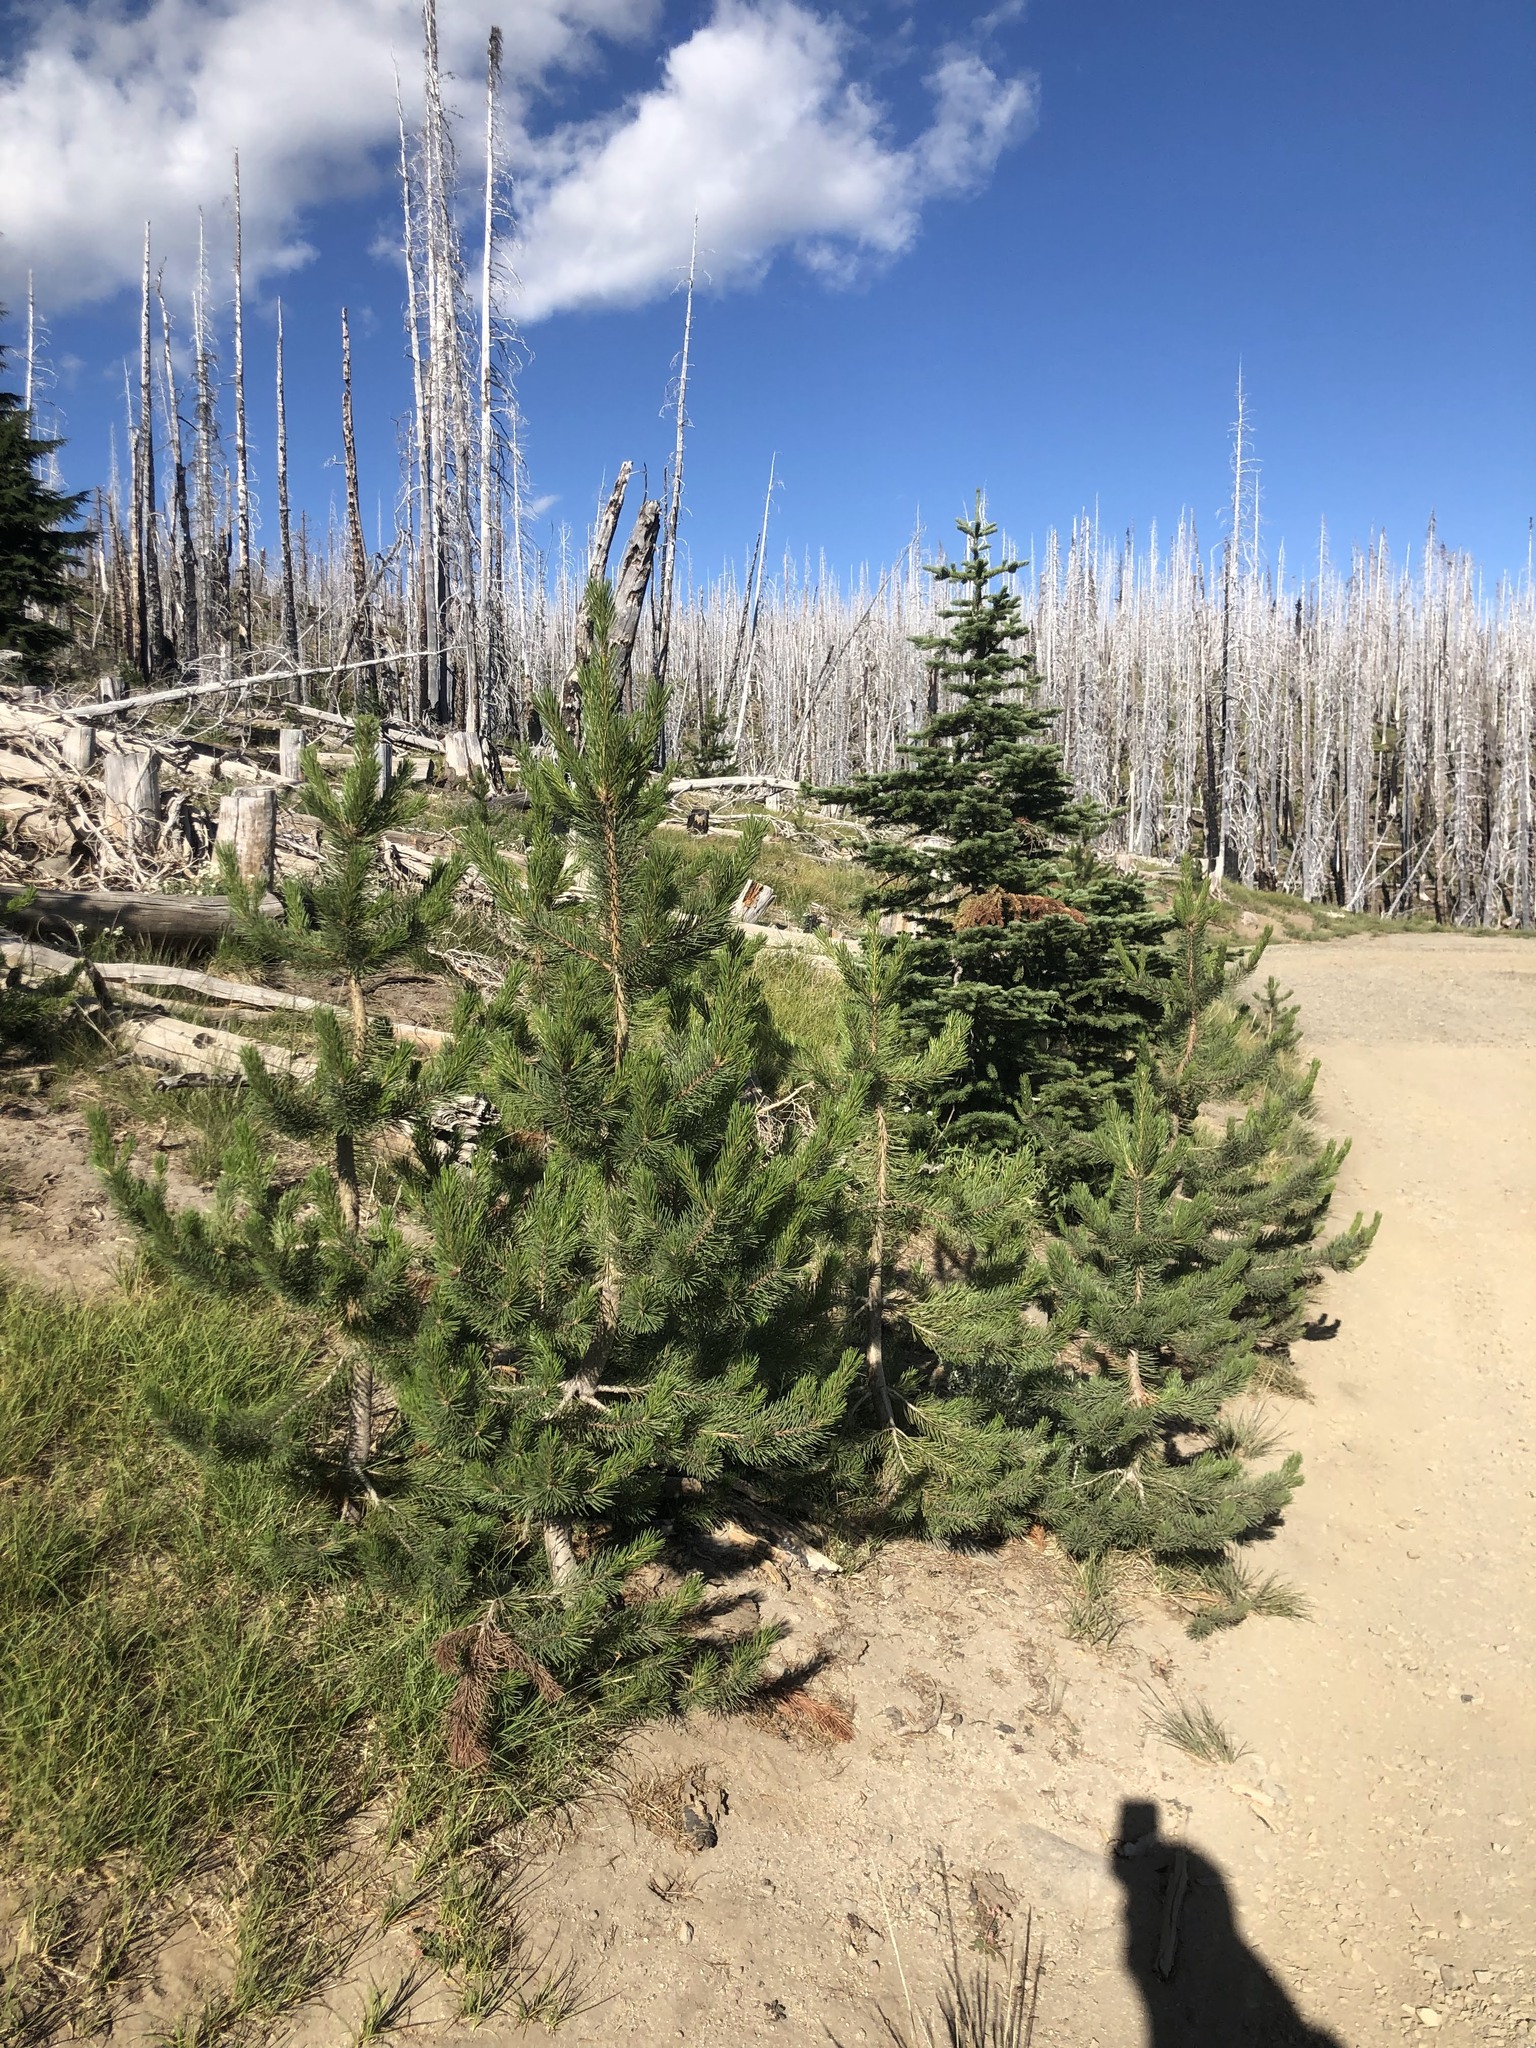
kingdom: Plantae
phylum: Tracheophyta
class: Pinopsida
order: Pinales
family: Pinaceae
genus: Pinus
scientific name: Pinus contorta
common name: Lodgepole pine
